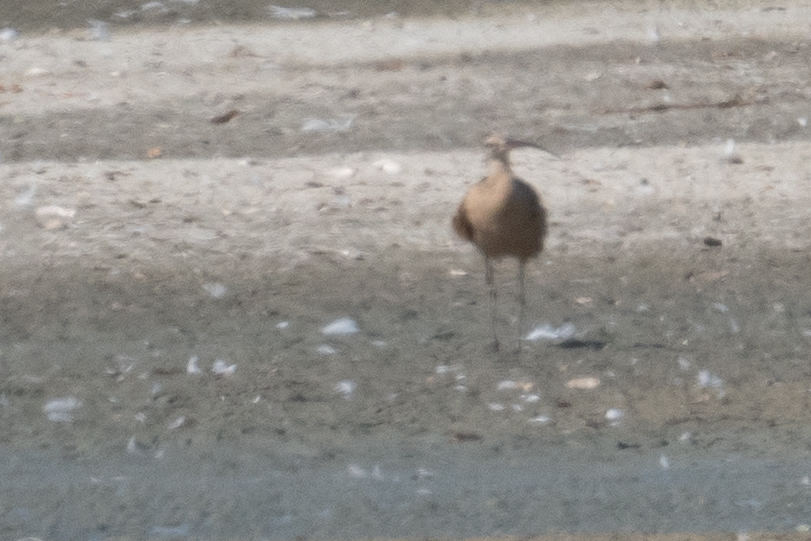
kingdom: Animalia
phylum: Chordata
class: Aves
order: Charadriiformes
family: Scolopacidae
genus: Numenius
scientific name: Numenius americanus
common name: Long-billed curlew
